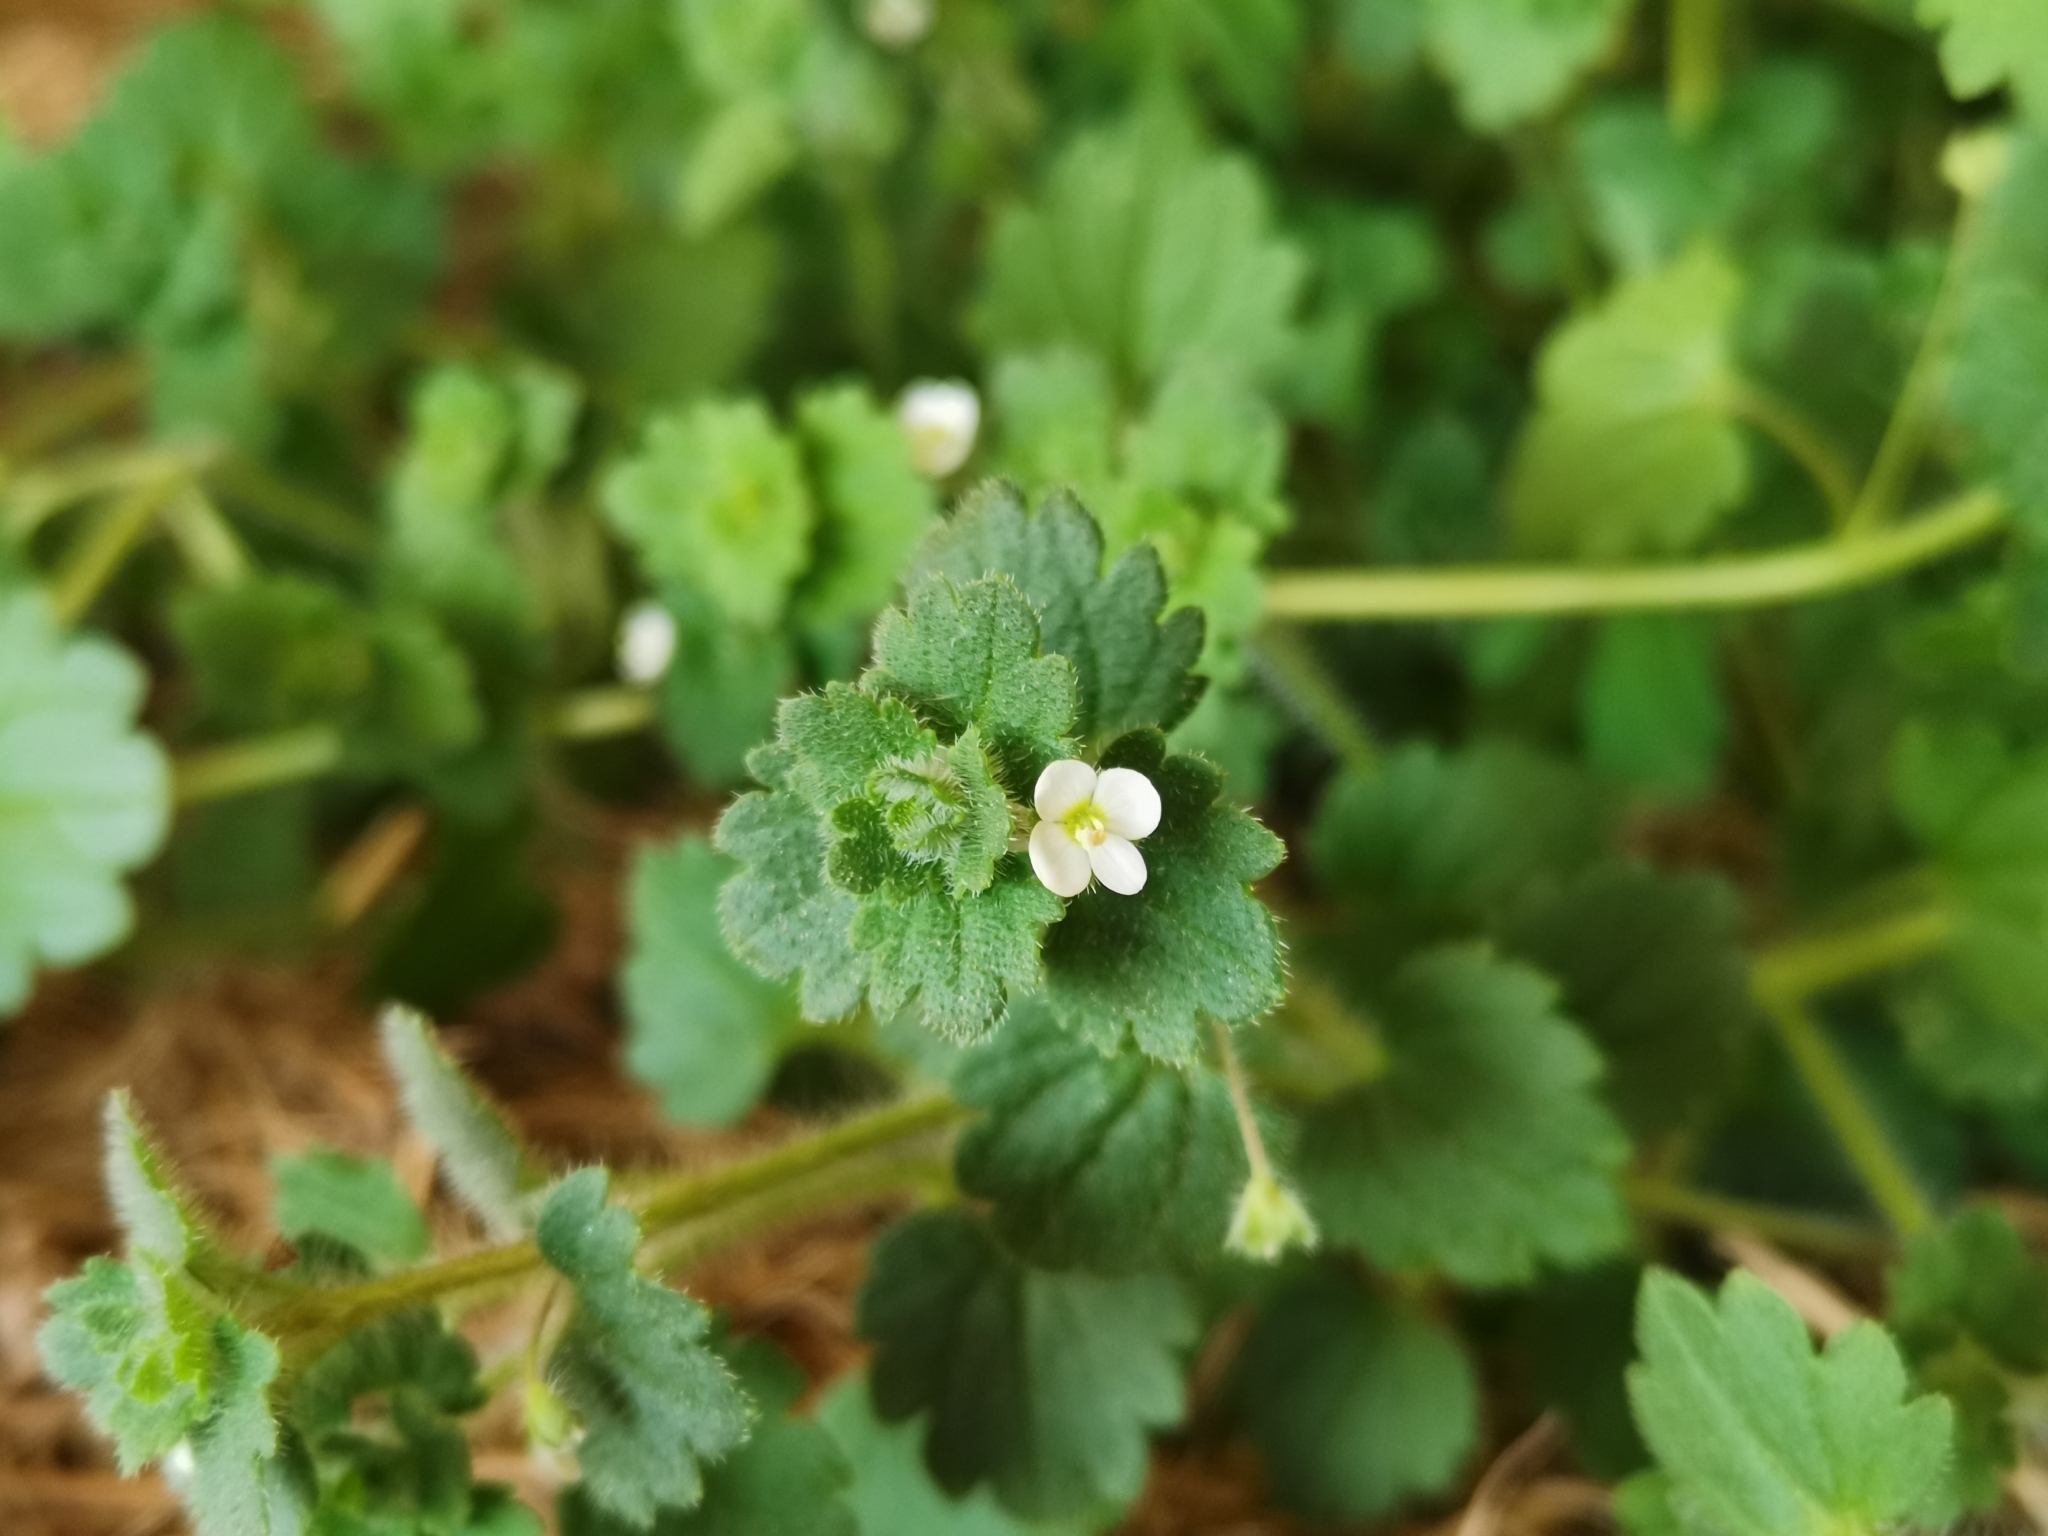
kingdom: Plantae
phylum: Tracheophyta
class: Magnoliopsida
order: Lamiales
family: Plantaginaceae
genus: Veronica
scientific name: Veronica cymbalaria
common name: Pale speedwell
